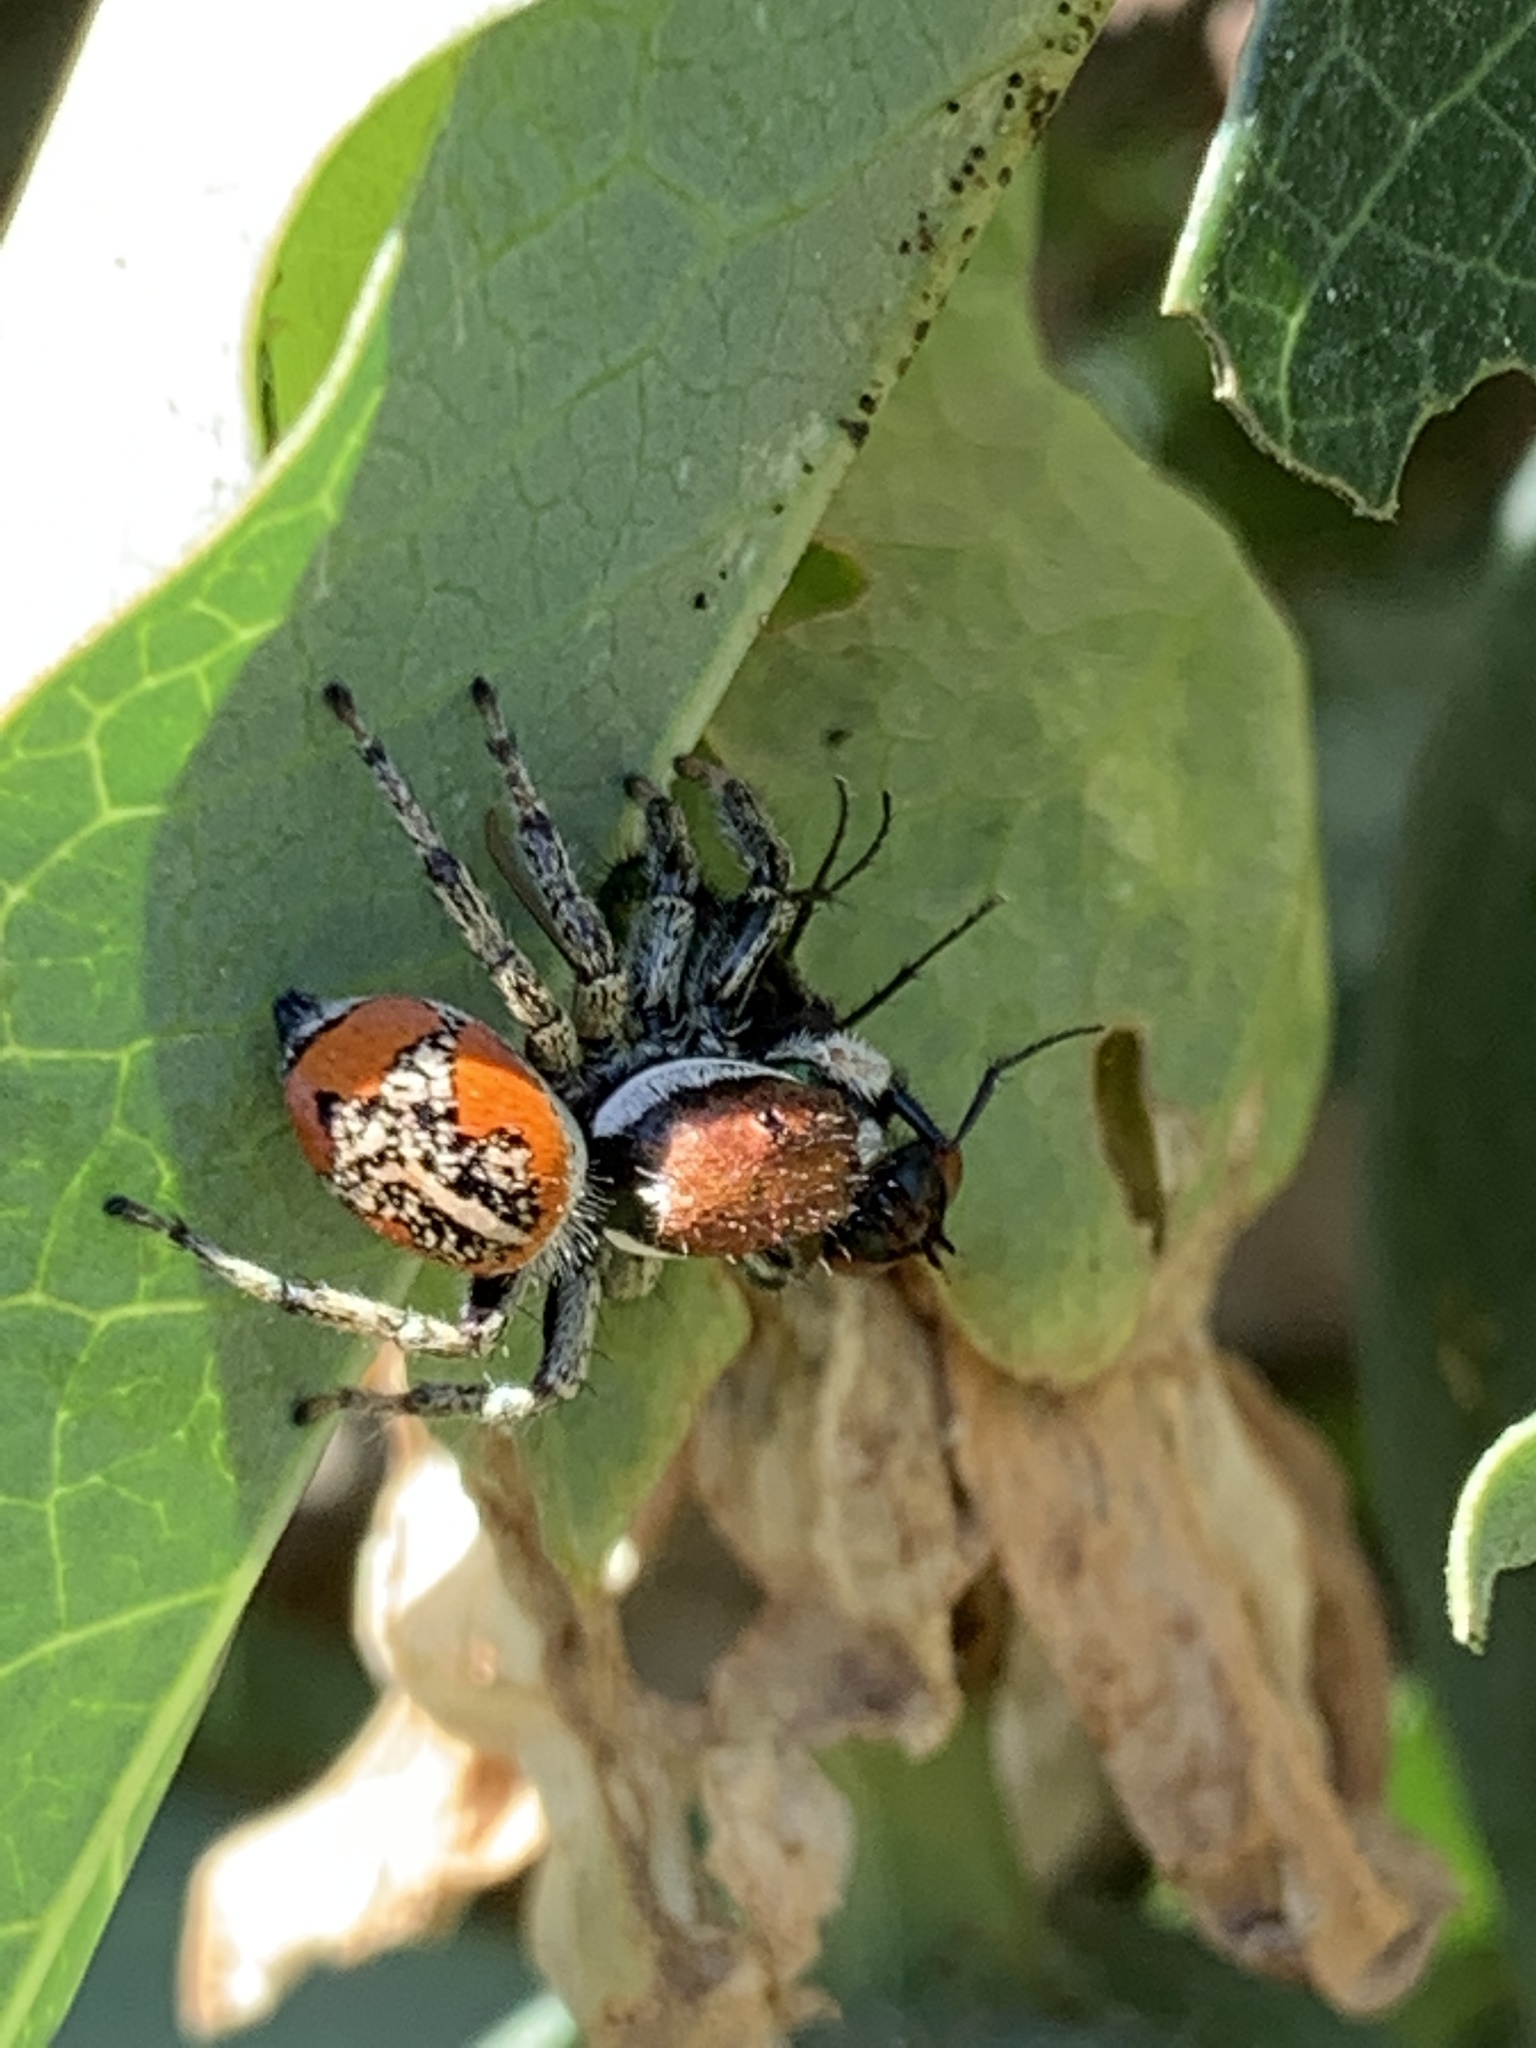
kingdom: Animalia
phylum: Arthropoda
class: Arachnida
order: Araneae
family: Salticidae
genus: Phiale
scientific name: Phiale roburifoliata
